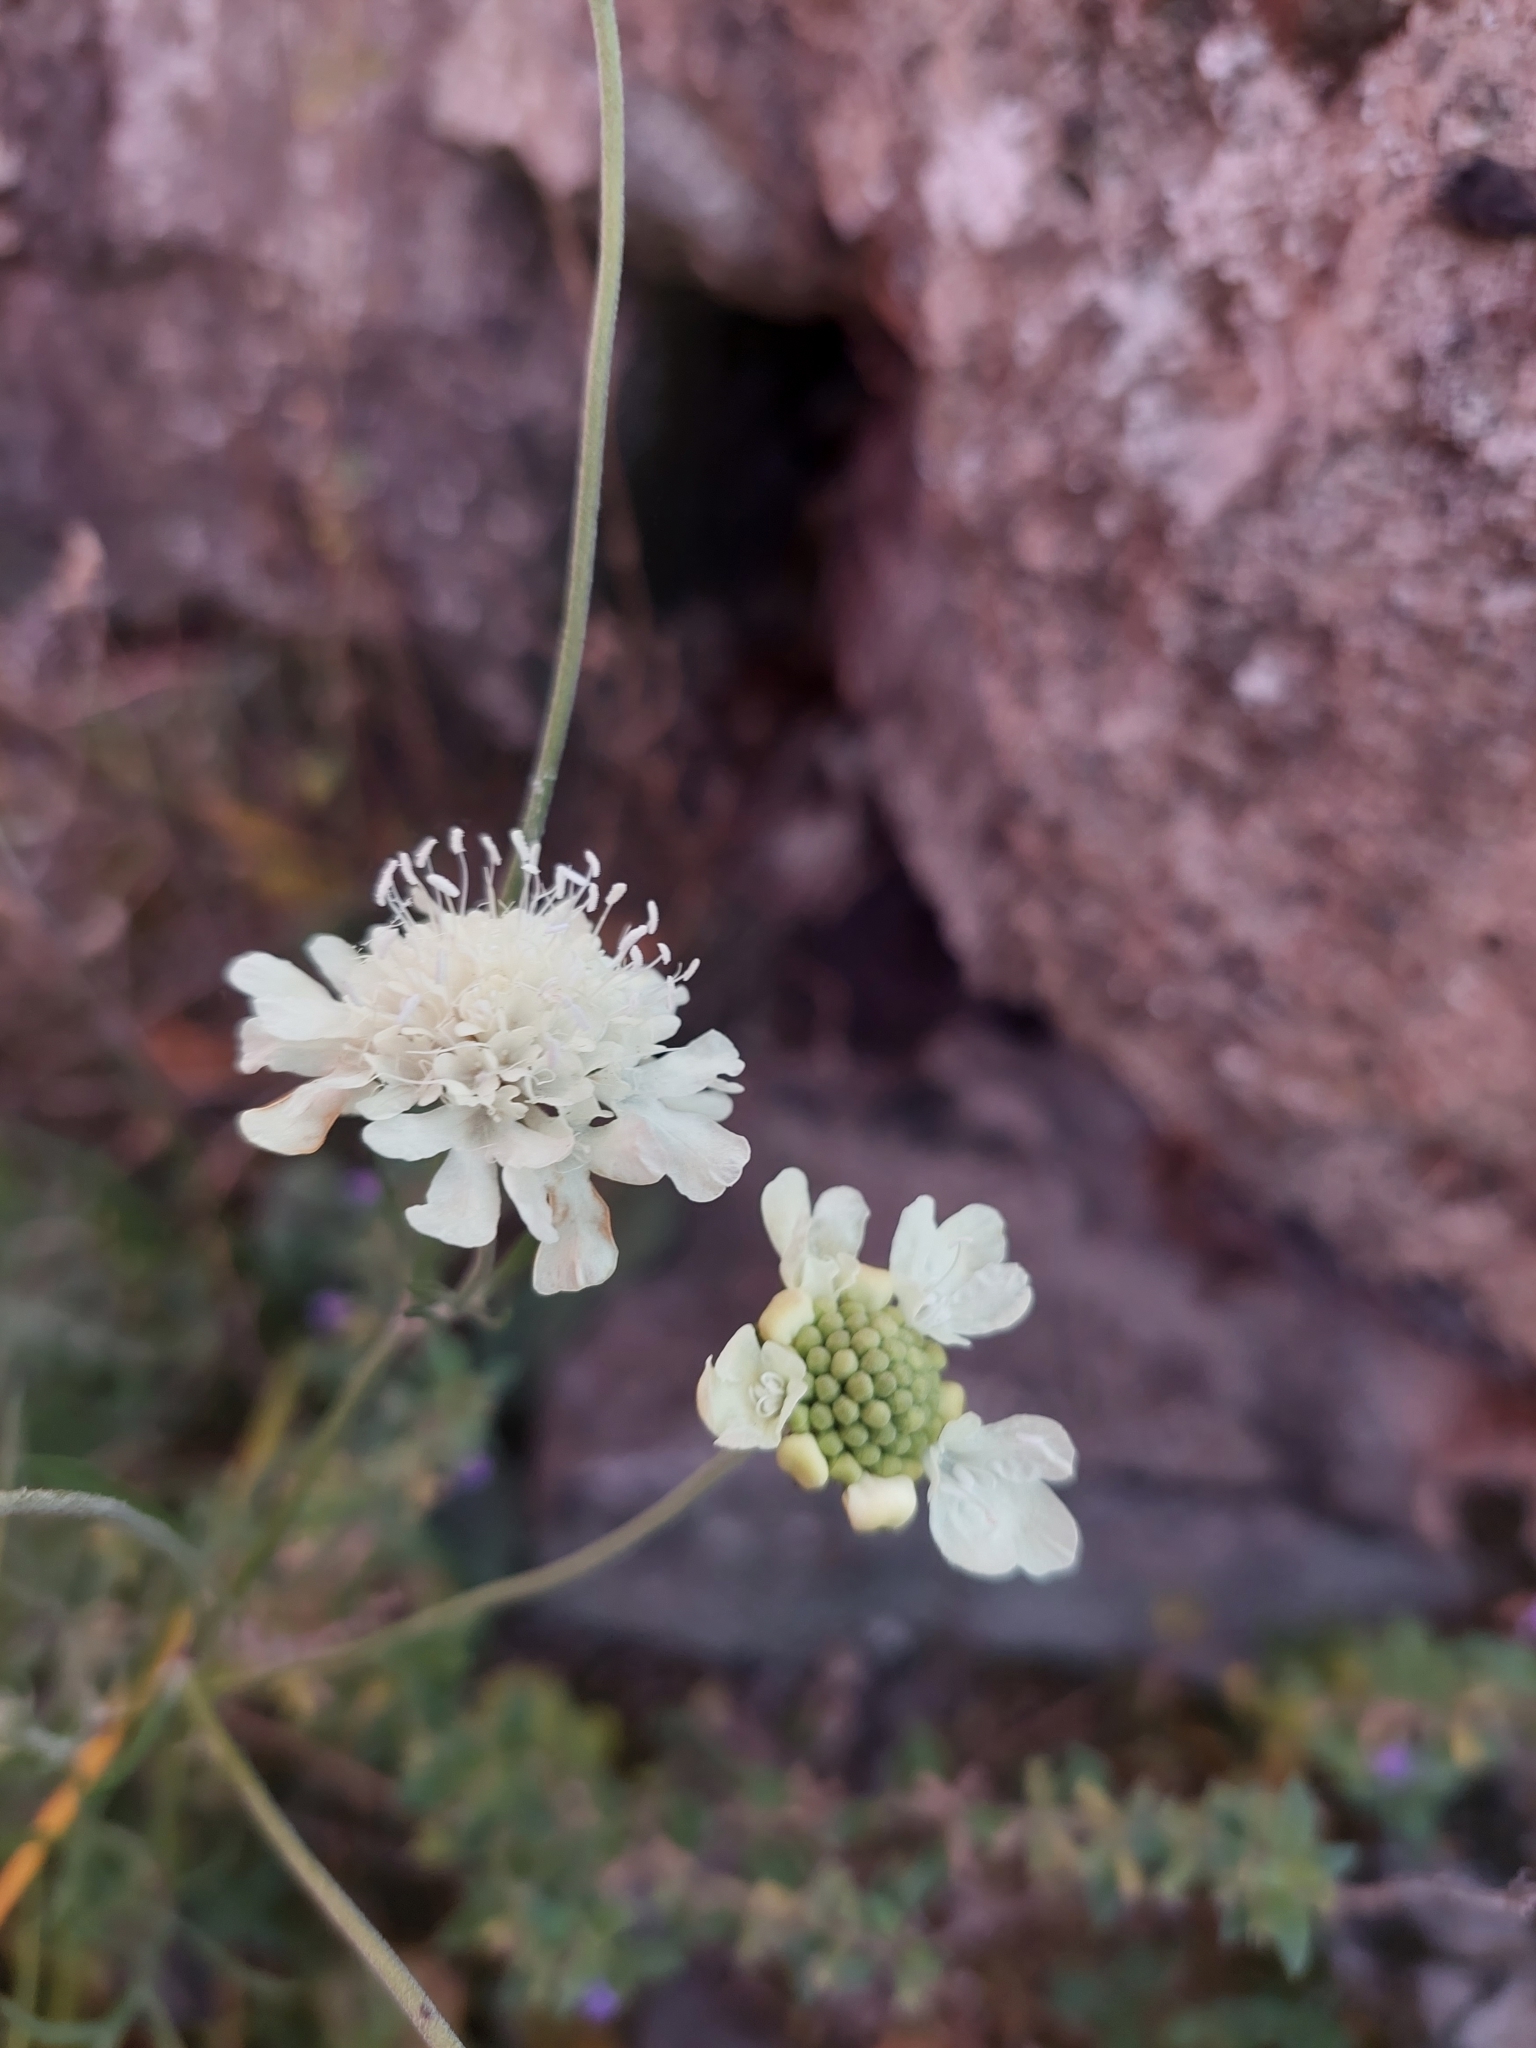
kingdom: Plantae
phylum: Tracheophyta
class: Magnoliopsida
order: Dipsacales
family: Caprifoliaceae
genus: Scabiosa
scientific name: Scabiosa ochroleuca
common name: Cream pincushions
